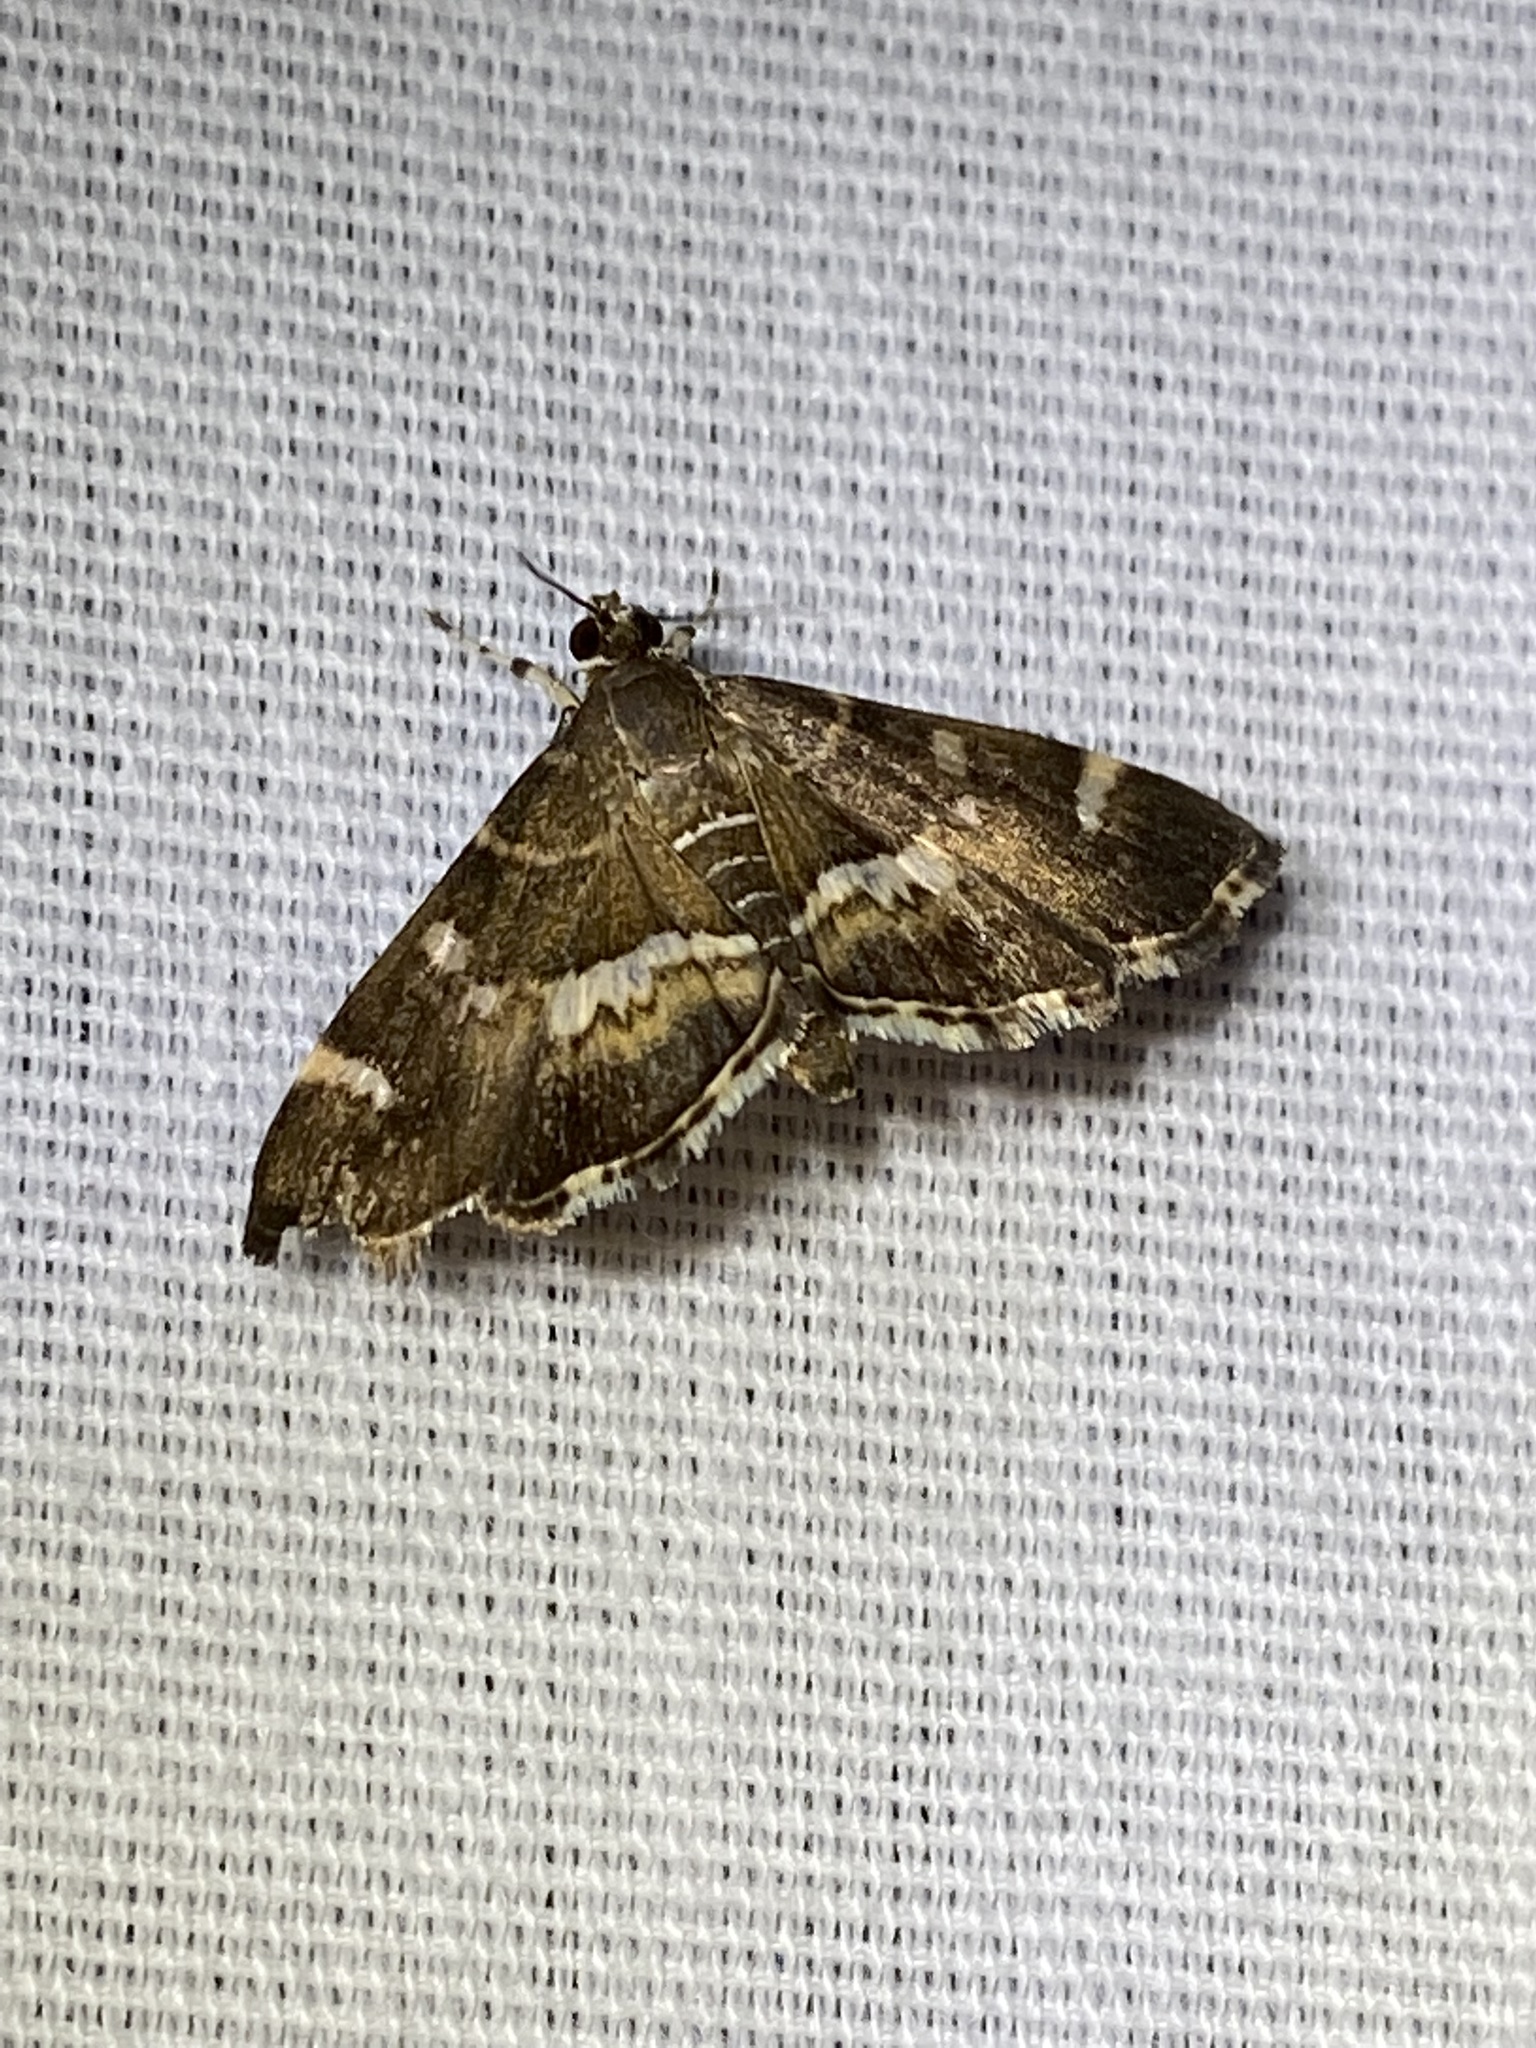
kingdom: Animalia
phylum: Arthropoda
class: Insecta
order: Lepidoptera
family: Crambidae
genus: Hymenia
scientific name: Hymenia perspectalis
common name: Spotted beet webworm
